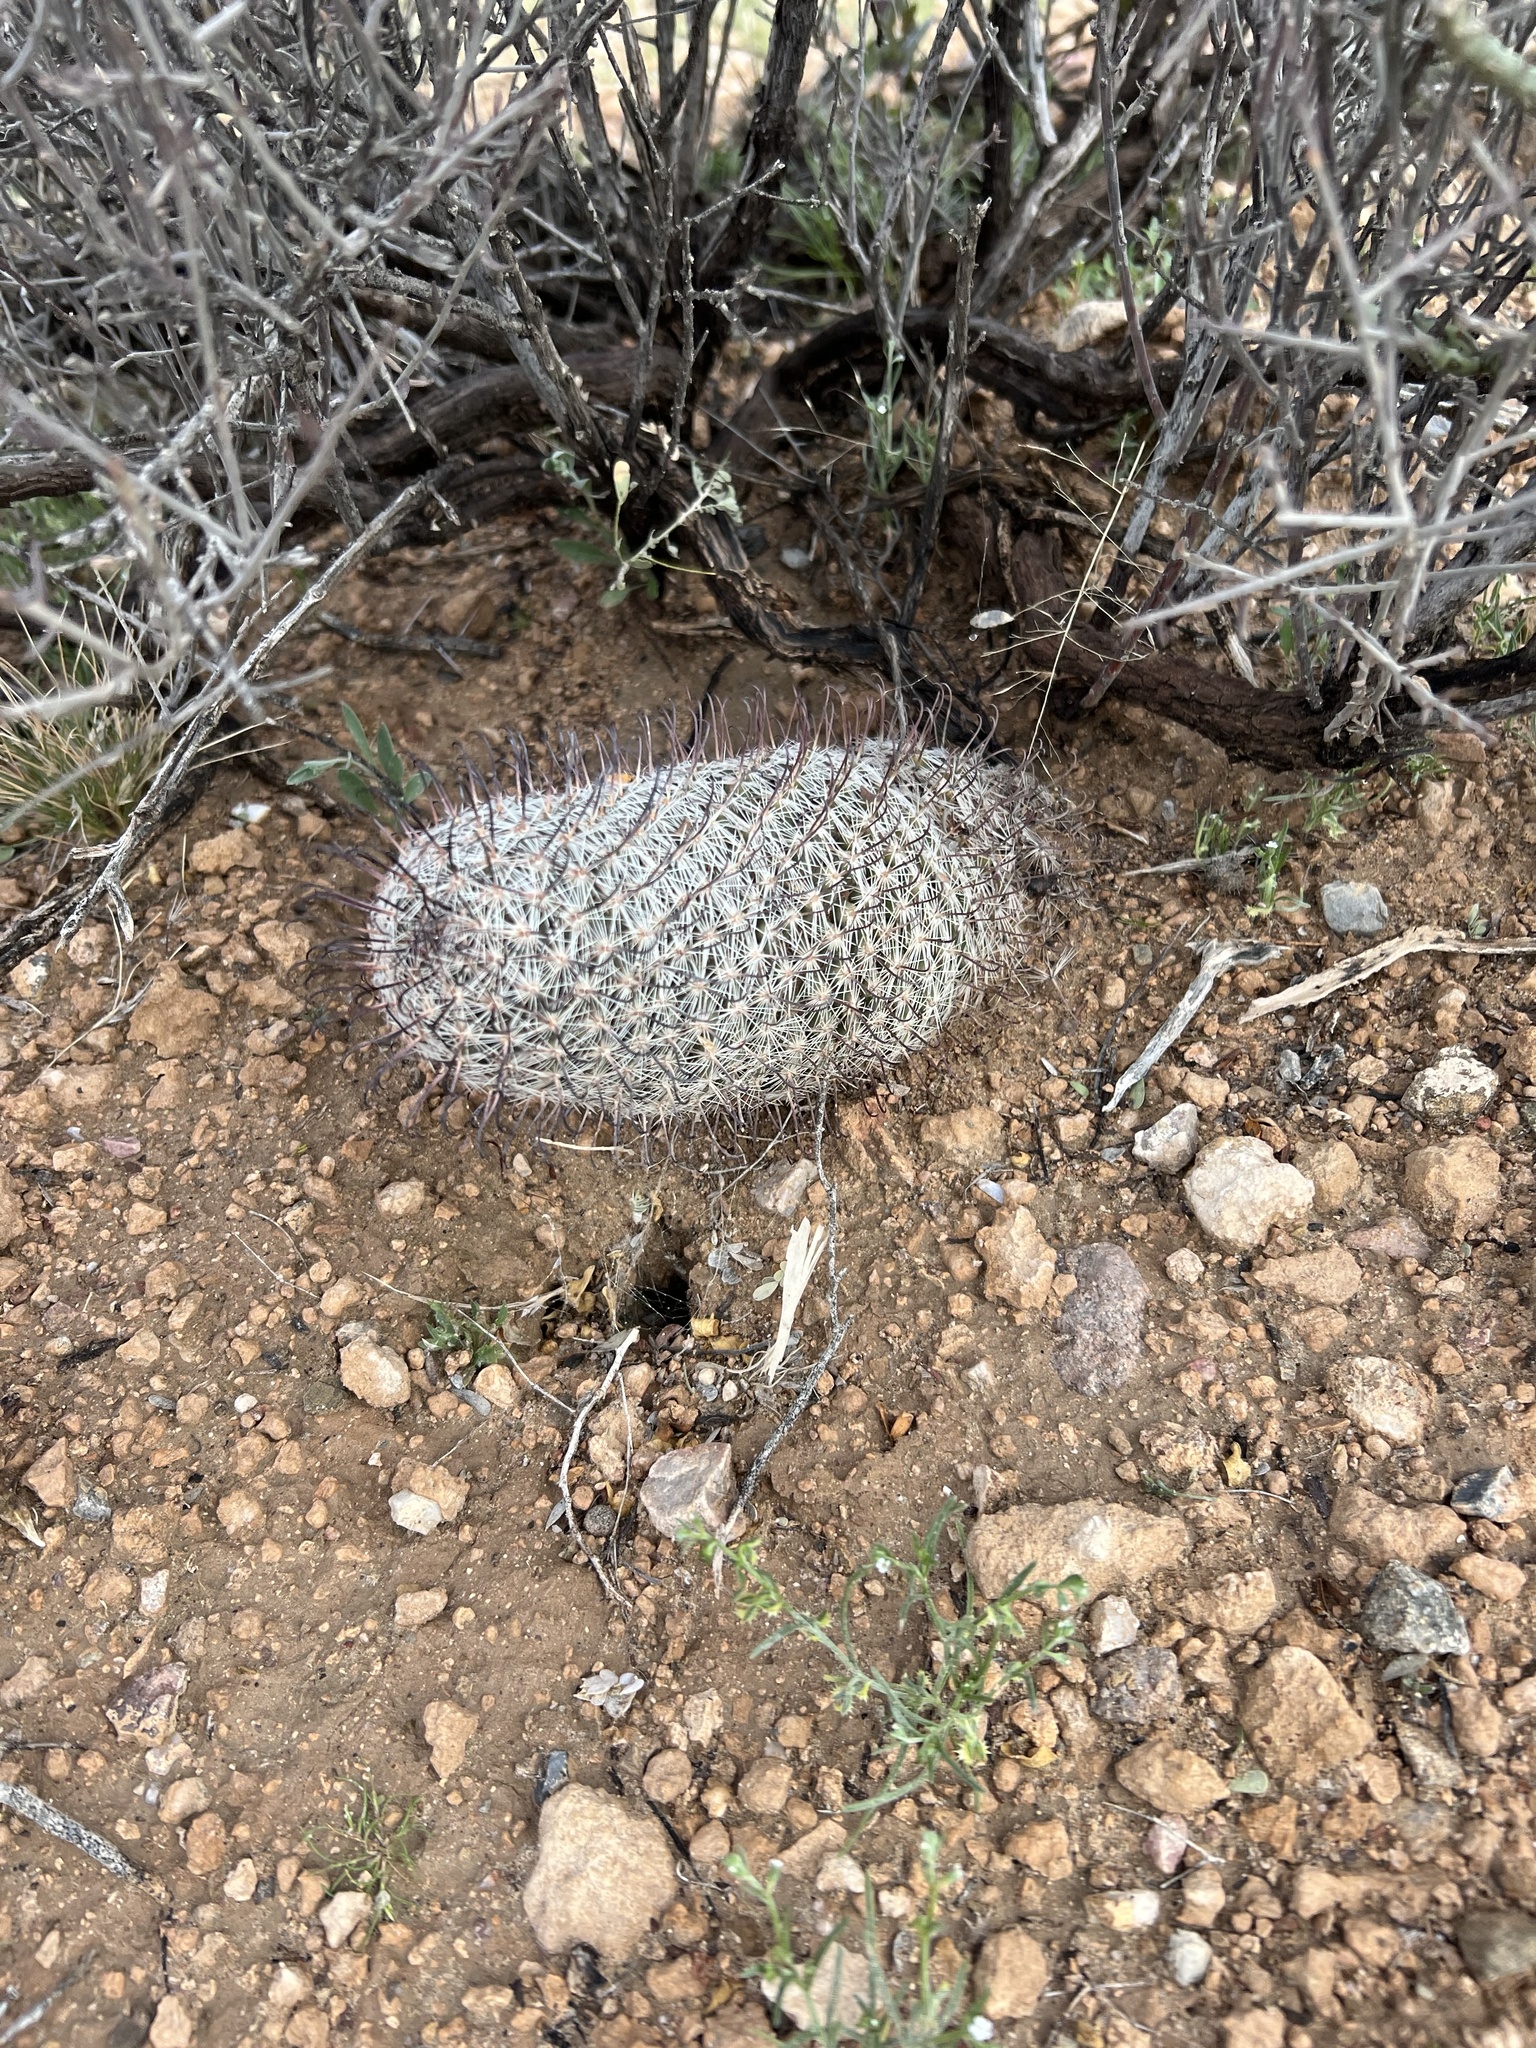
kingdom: Plantae
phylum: Tracheophyta
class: Magnoliopsida
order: Caryophyllales
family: Cactaceae
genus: Cochemiea
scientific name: Cochemiea grahamii
